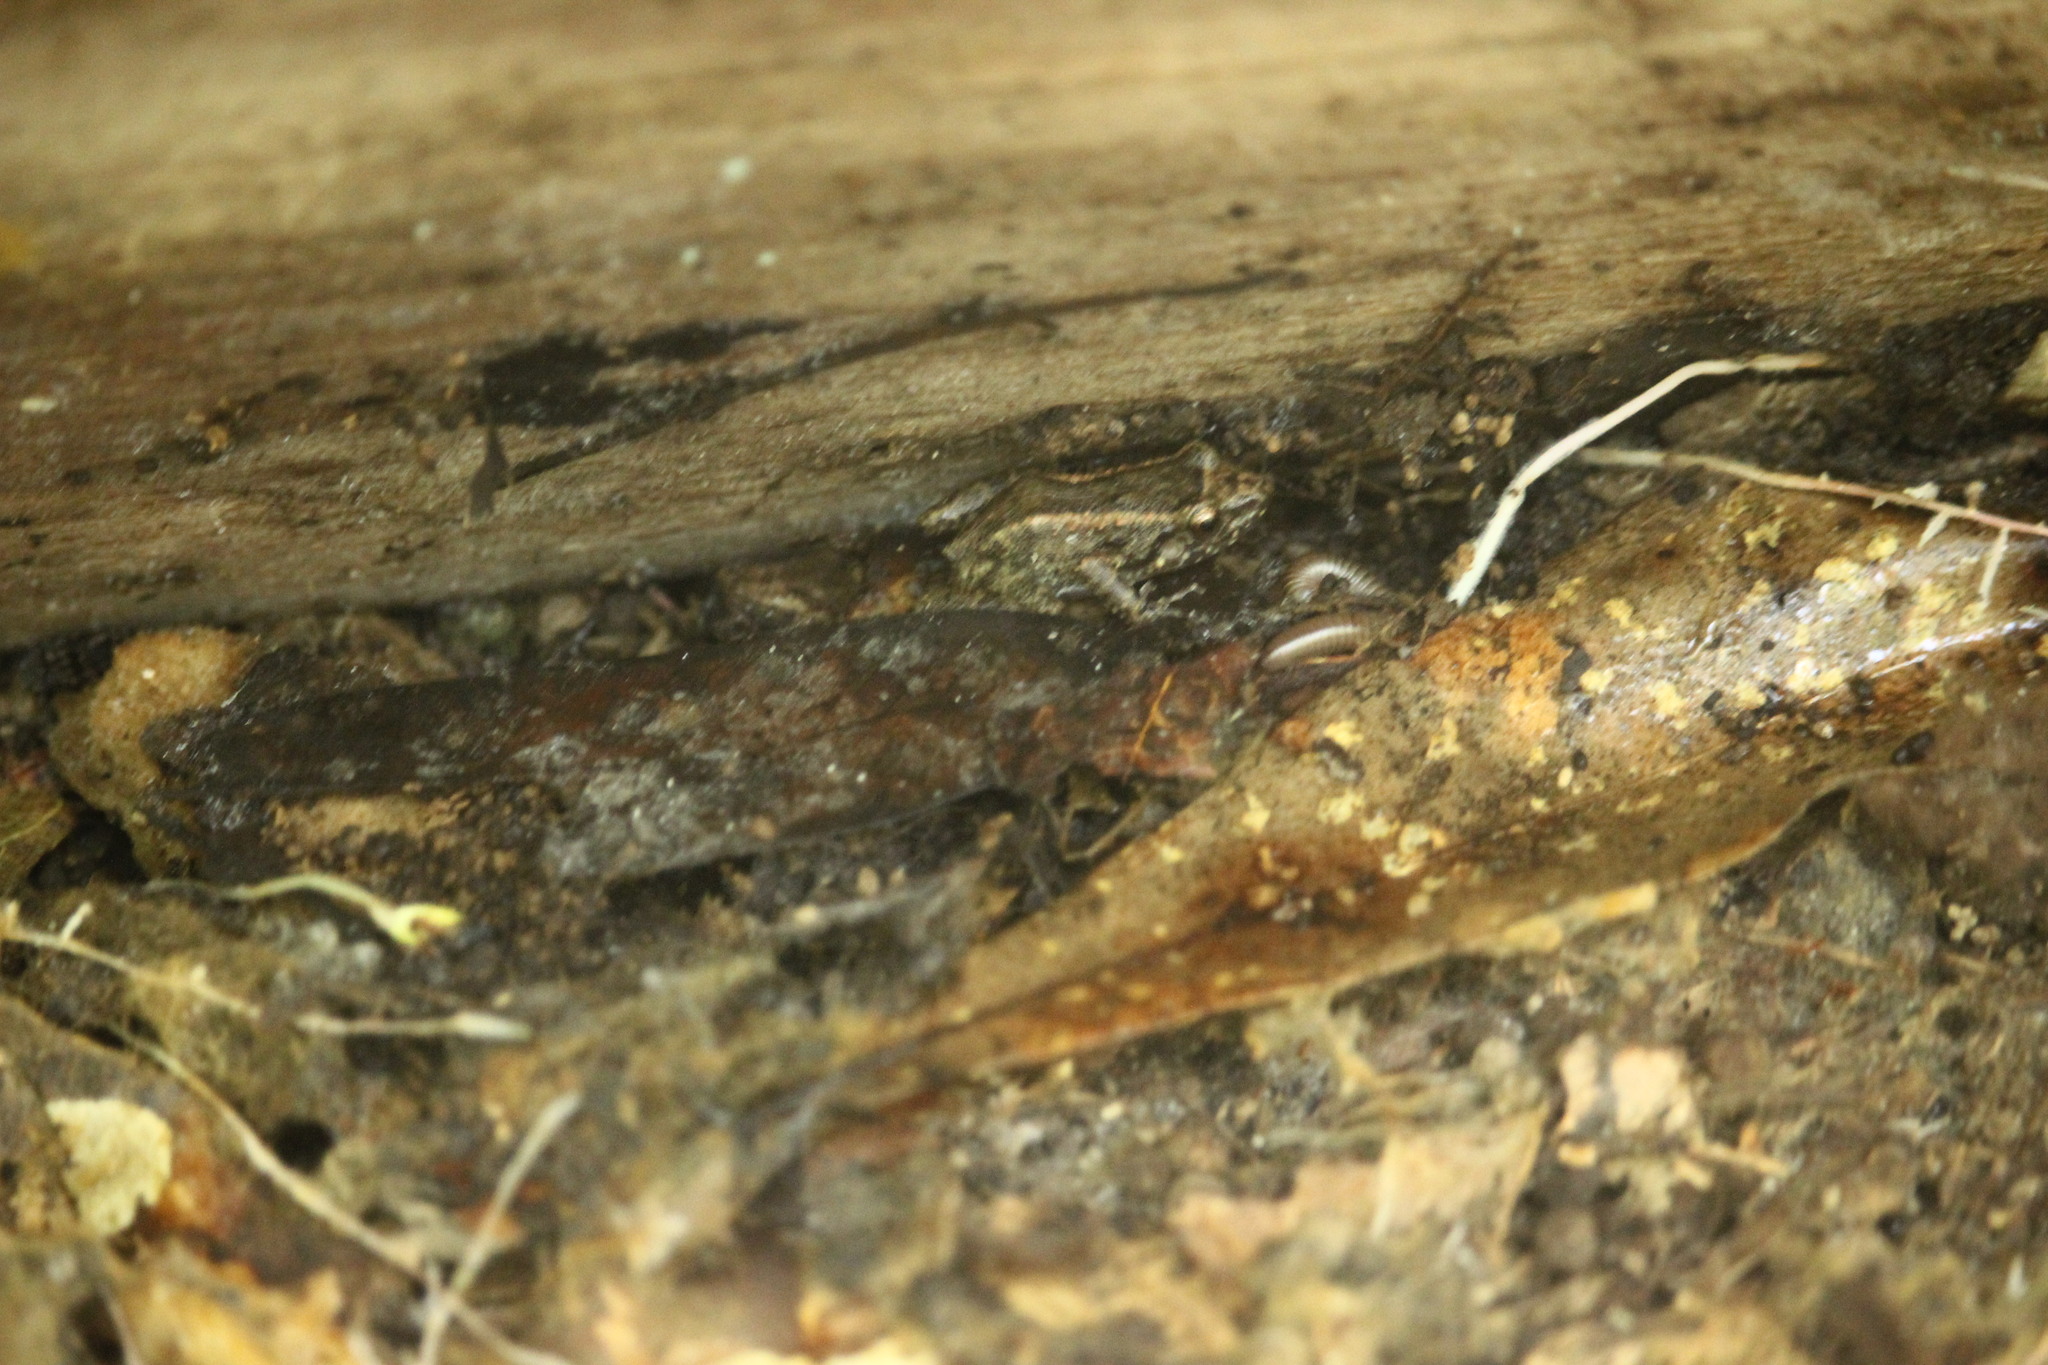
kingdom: Animalia
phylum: Chordata
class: Amphibia
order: Anura
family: Eleutherodactylidae
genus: Eleutherodactylus
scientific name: Eleutherodactylus planirostris
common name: Greenhouse frog
